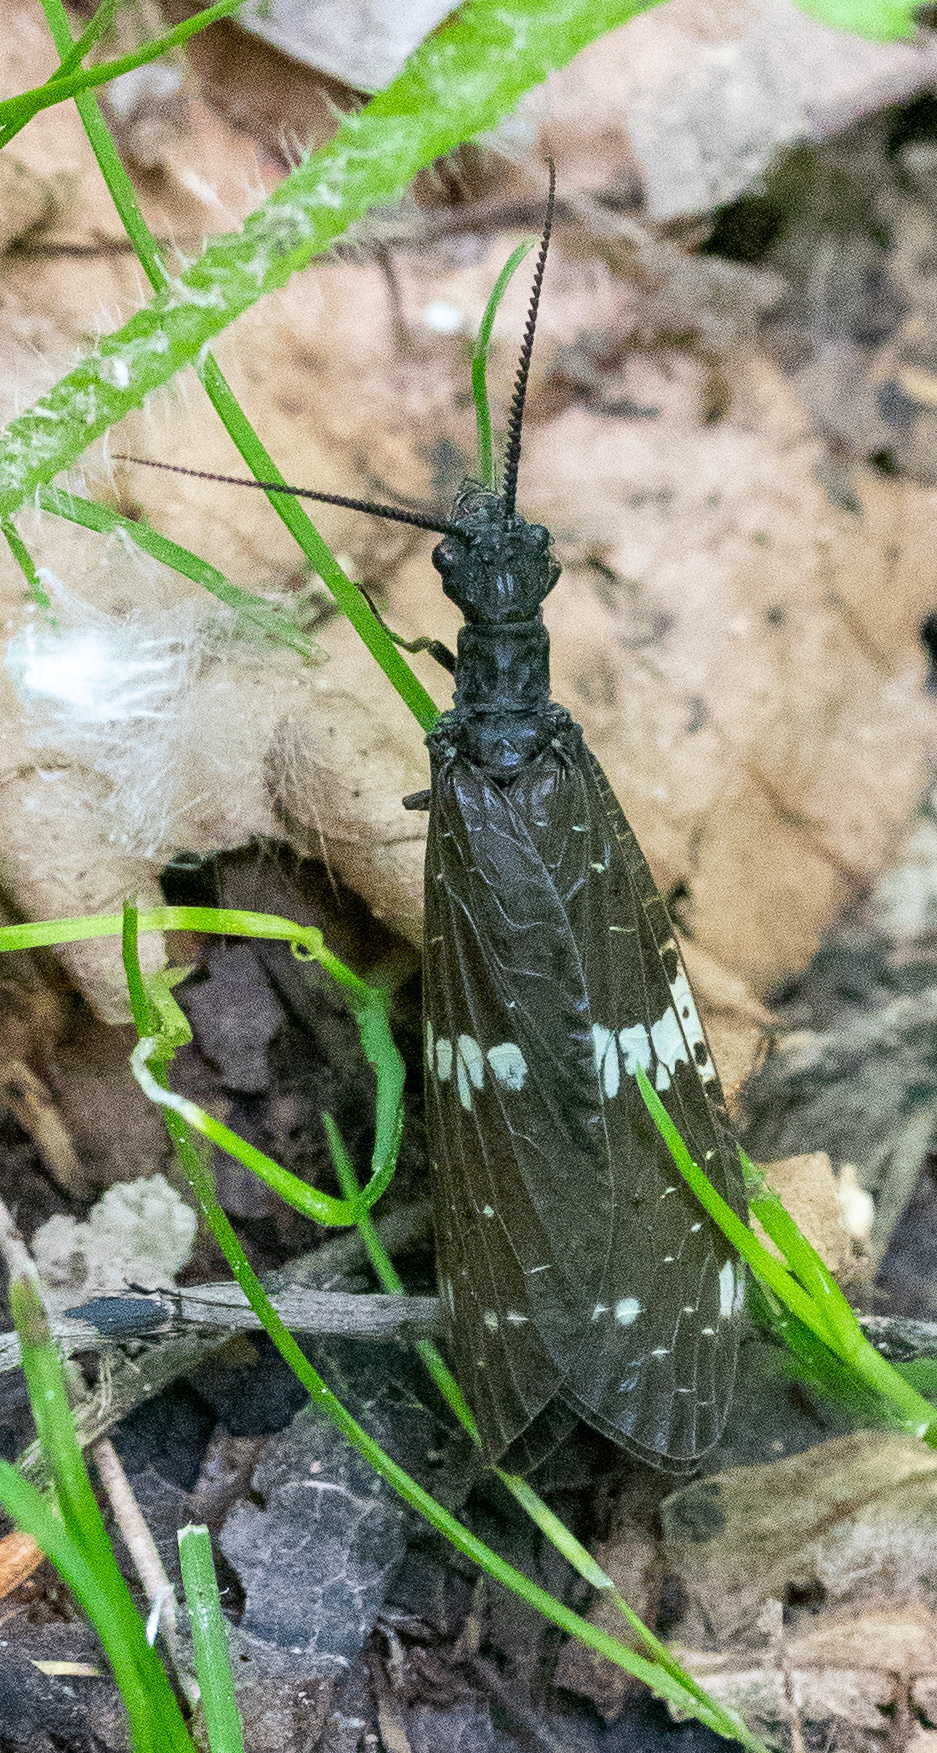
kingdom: Animalia
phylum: Arthropoda
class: Insecta
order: Megaloptera
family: Corydalidae
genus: Nigronia
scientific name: Nigronia serricornis
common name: Serrate dark fishfly
